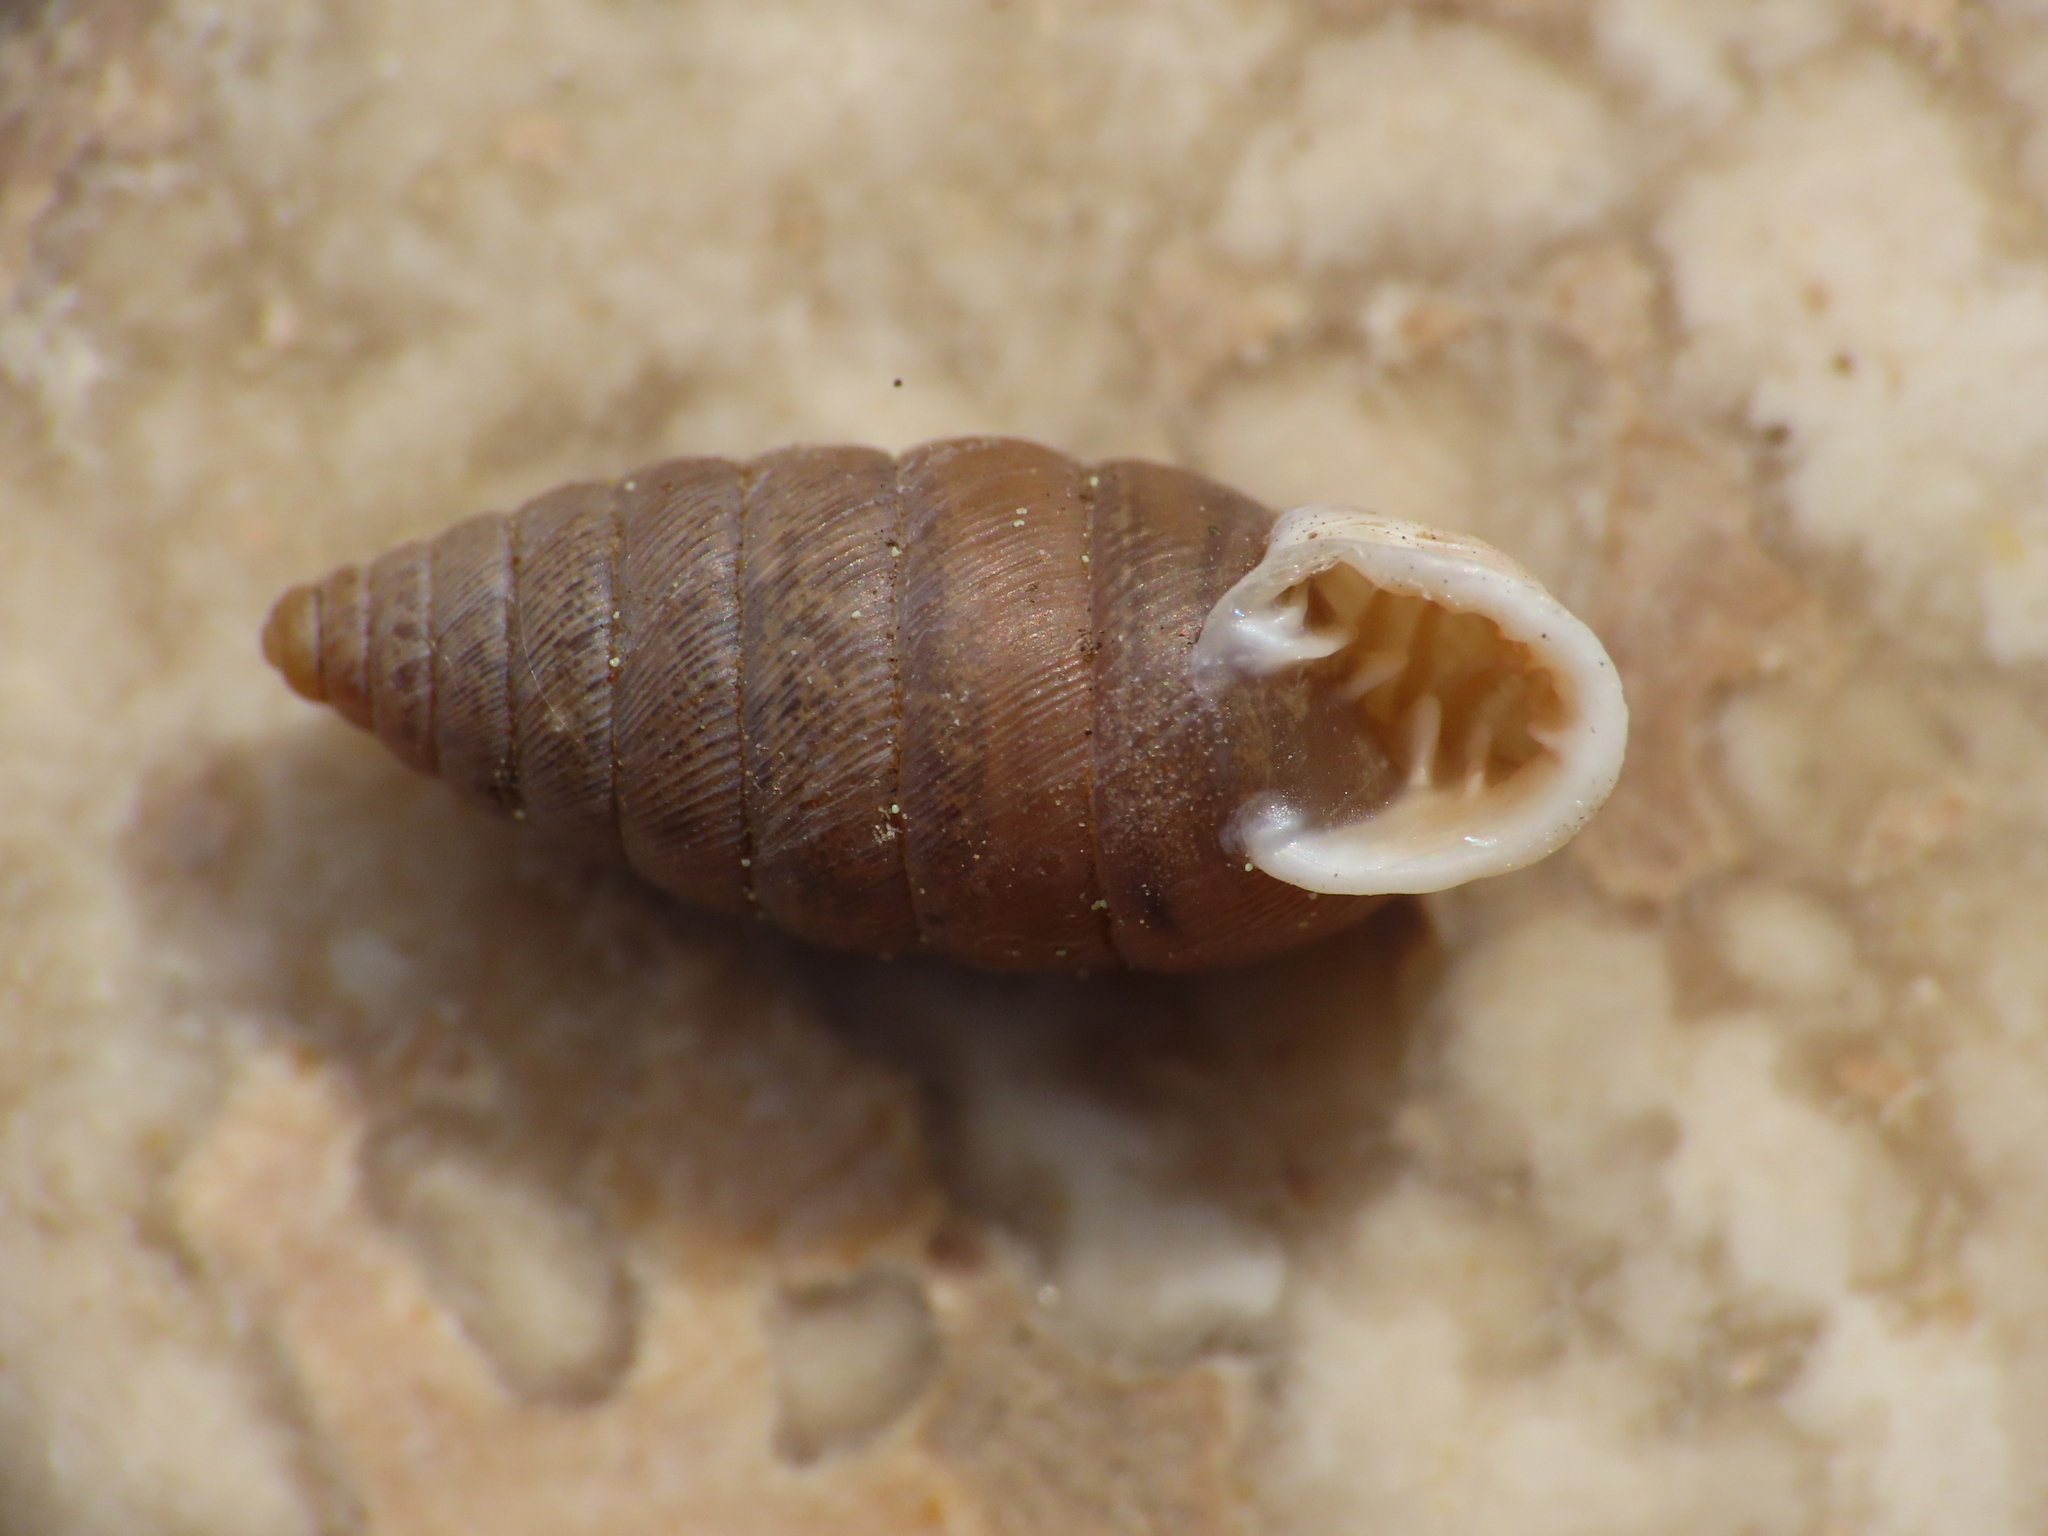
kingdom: Animalia
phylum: Mollusca
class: Gastropoda
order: Stylommatophora
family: Chondrinidae
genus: Granaria
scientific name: Granaria frumentum
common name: An air-breathing land snail
